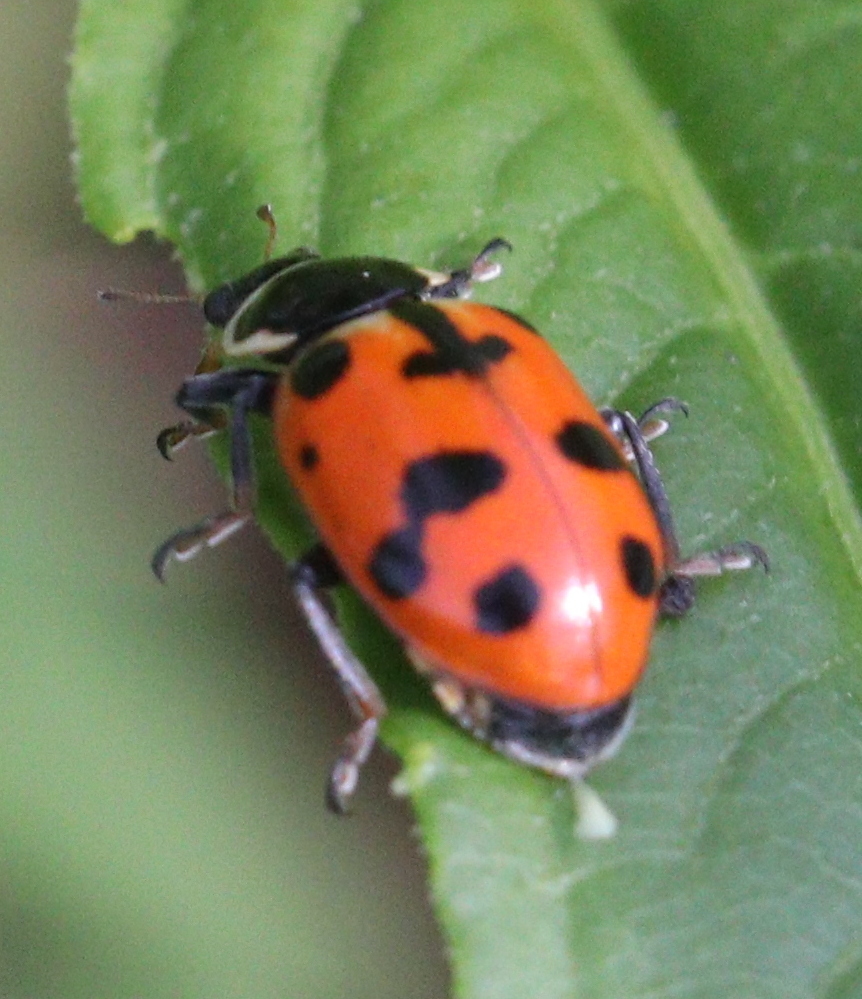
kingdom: Animalia
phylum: Arthropoda
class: Insecta
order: Coleoptera
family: Coccinellidae
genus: Hippodamia
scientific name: Hippodamia septemmaculata
